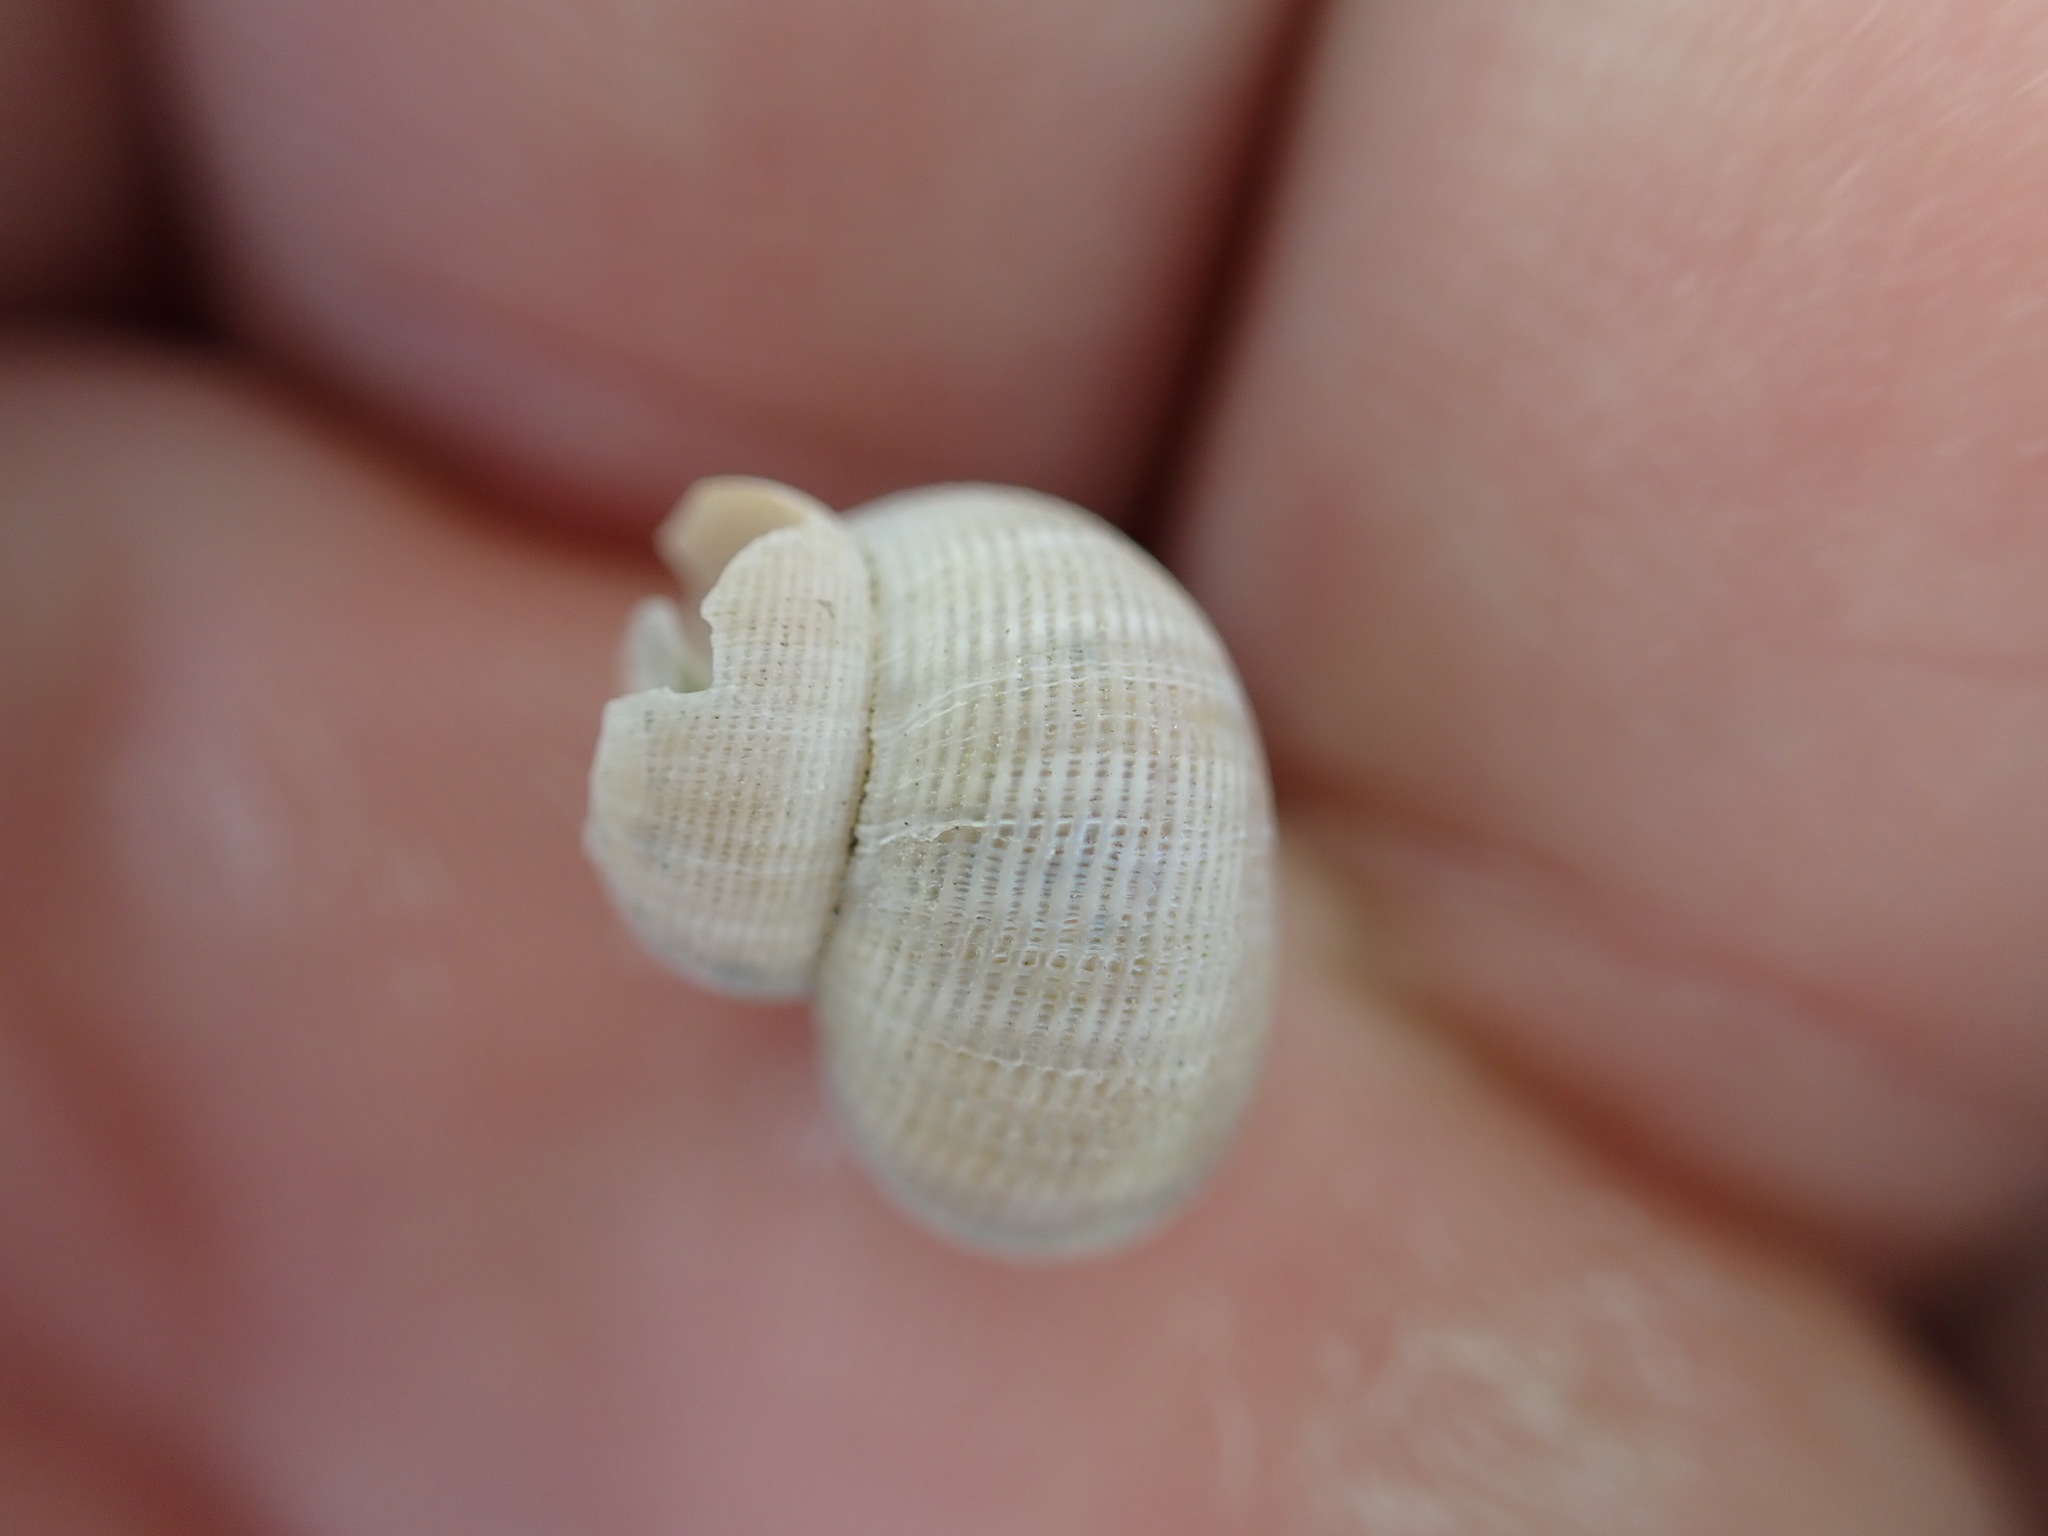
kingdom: Animalia
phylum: Mollusca
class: Gastropoda
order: Littorinimorpha
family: Pomatiidae
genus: Pomatias
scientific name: Pomatias elegans
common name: Red-mouthed snail
